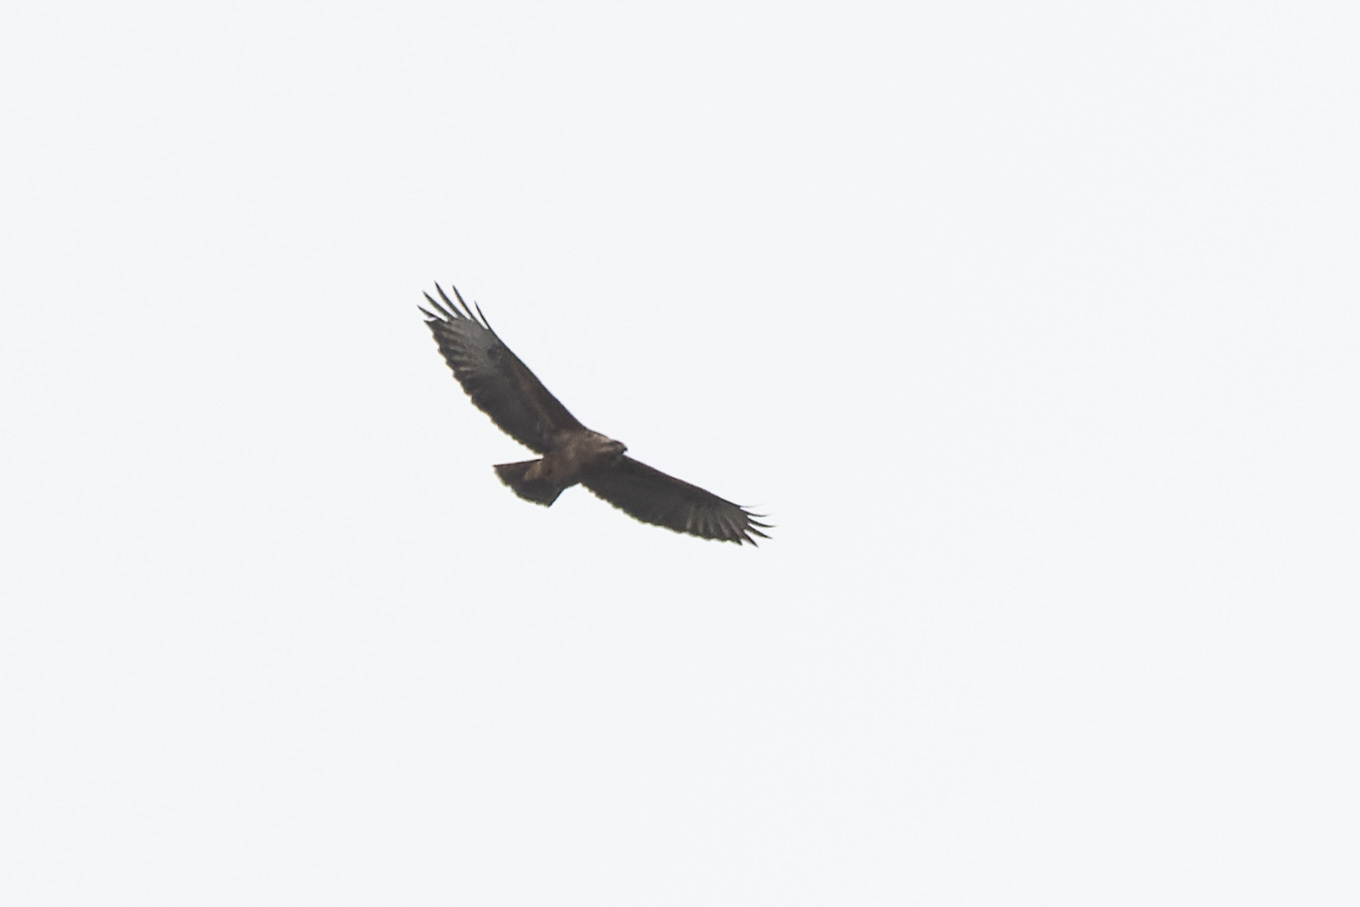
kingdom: Animalia
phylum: Chordata
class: Aves
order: Accipitriformes
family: Accipitridae
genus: Buteo
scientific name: Buteo buteo
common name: Common buzzard
